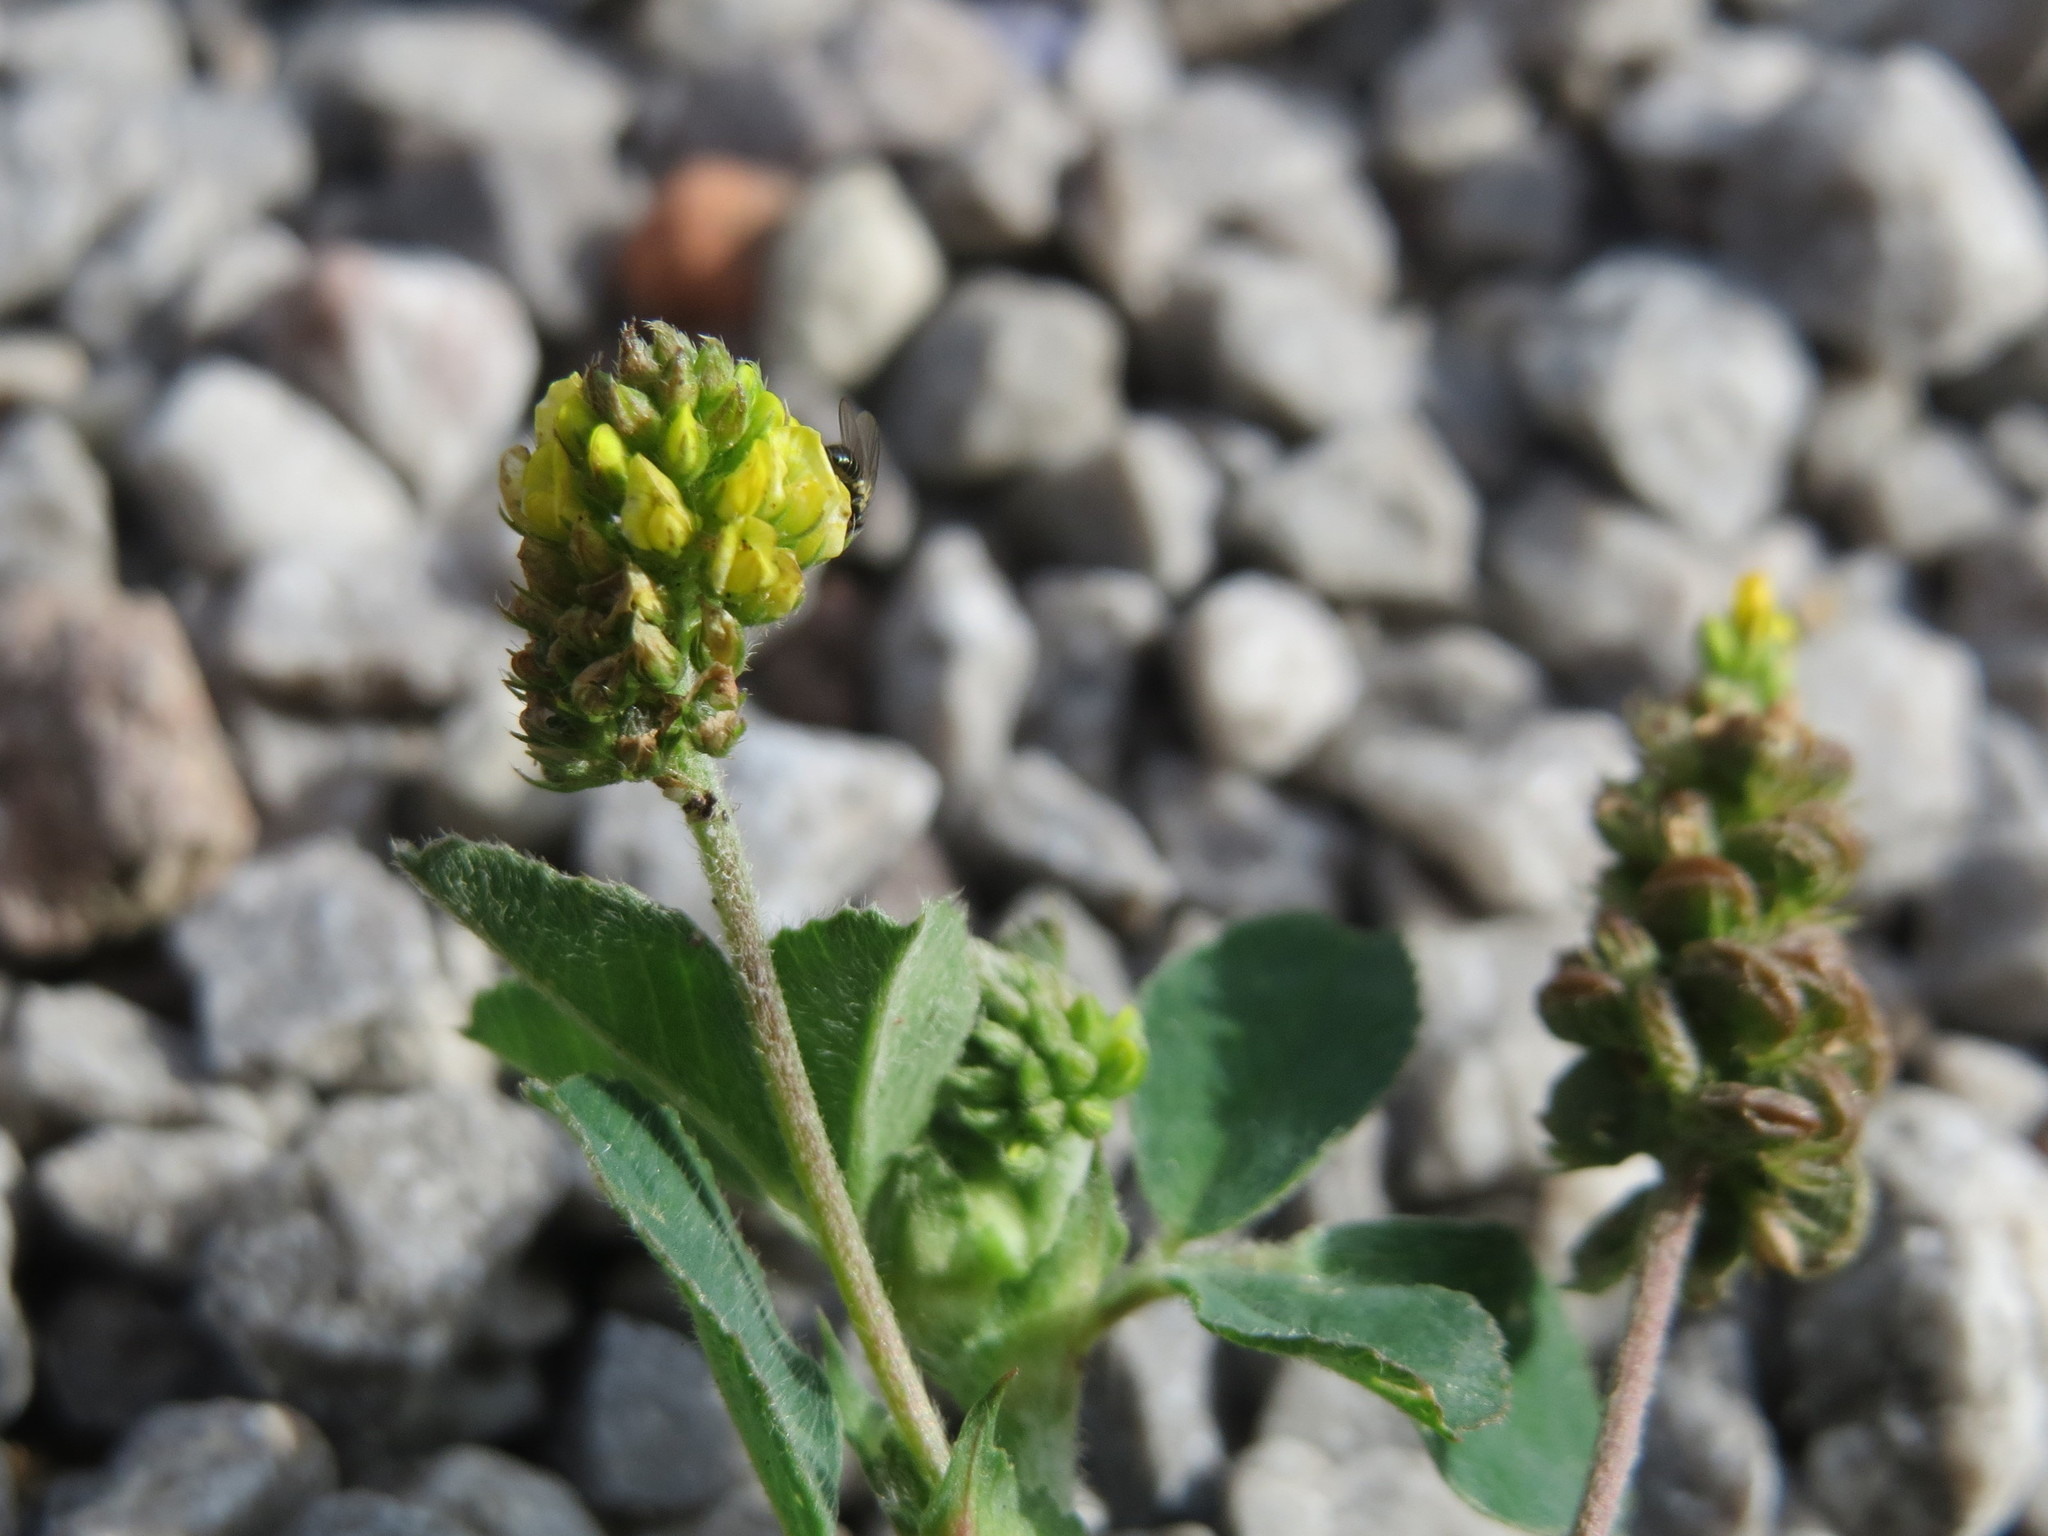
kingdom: Plantae
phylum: Tracheophyta
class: Magnoliopsida
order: Fabales
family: Fabaceae
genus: Medicago
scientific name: Medicago lupulina
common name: Black medick
